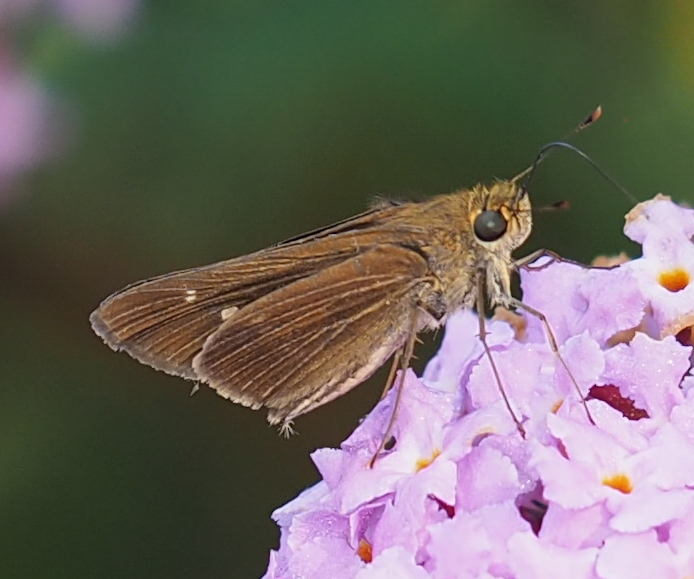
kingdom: Animalia
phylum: Arthropoda
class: Insecta
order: Lepidoptera
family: Hesperiidae
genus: Panoquina
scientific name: Panoquina ocola
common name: Ocola skipper
